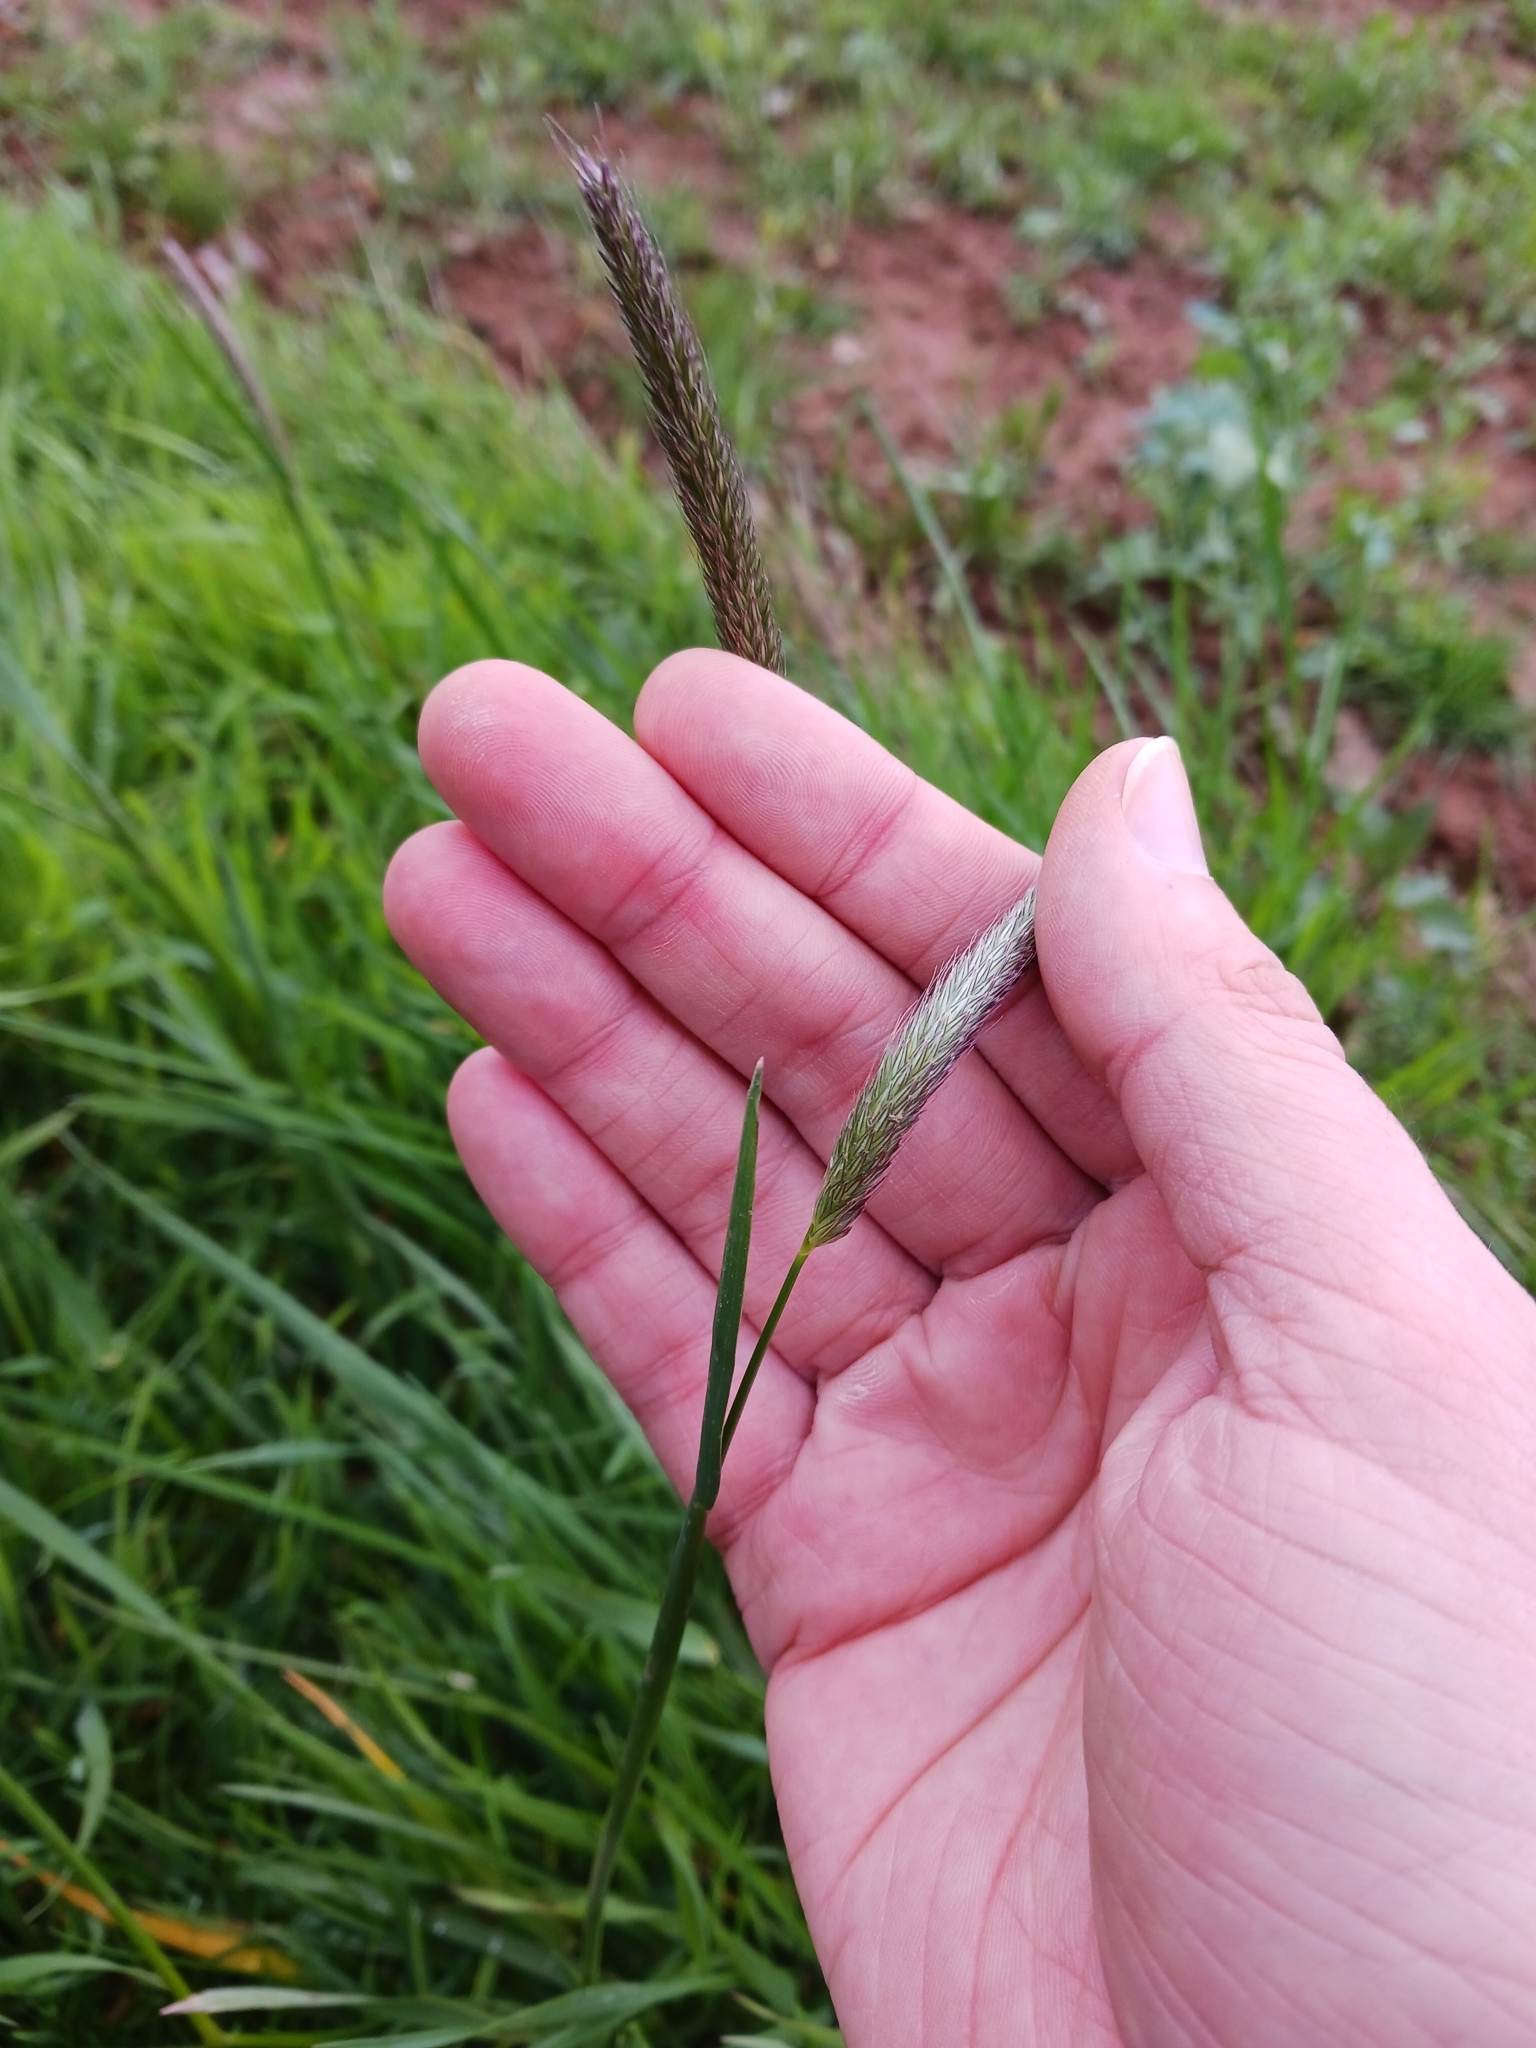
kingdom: Plantae
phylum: Tracheophyta
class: Liliopsida
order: Poales
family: Poaceae
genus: Alopecurus
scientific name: Alopecurus pratensis
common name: Meadow foxtail
